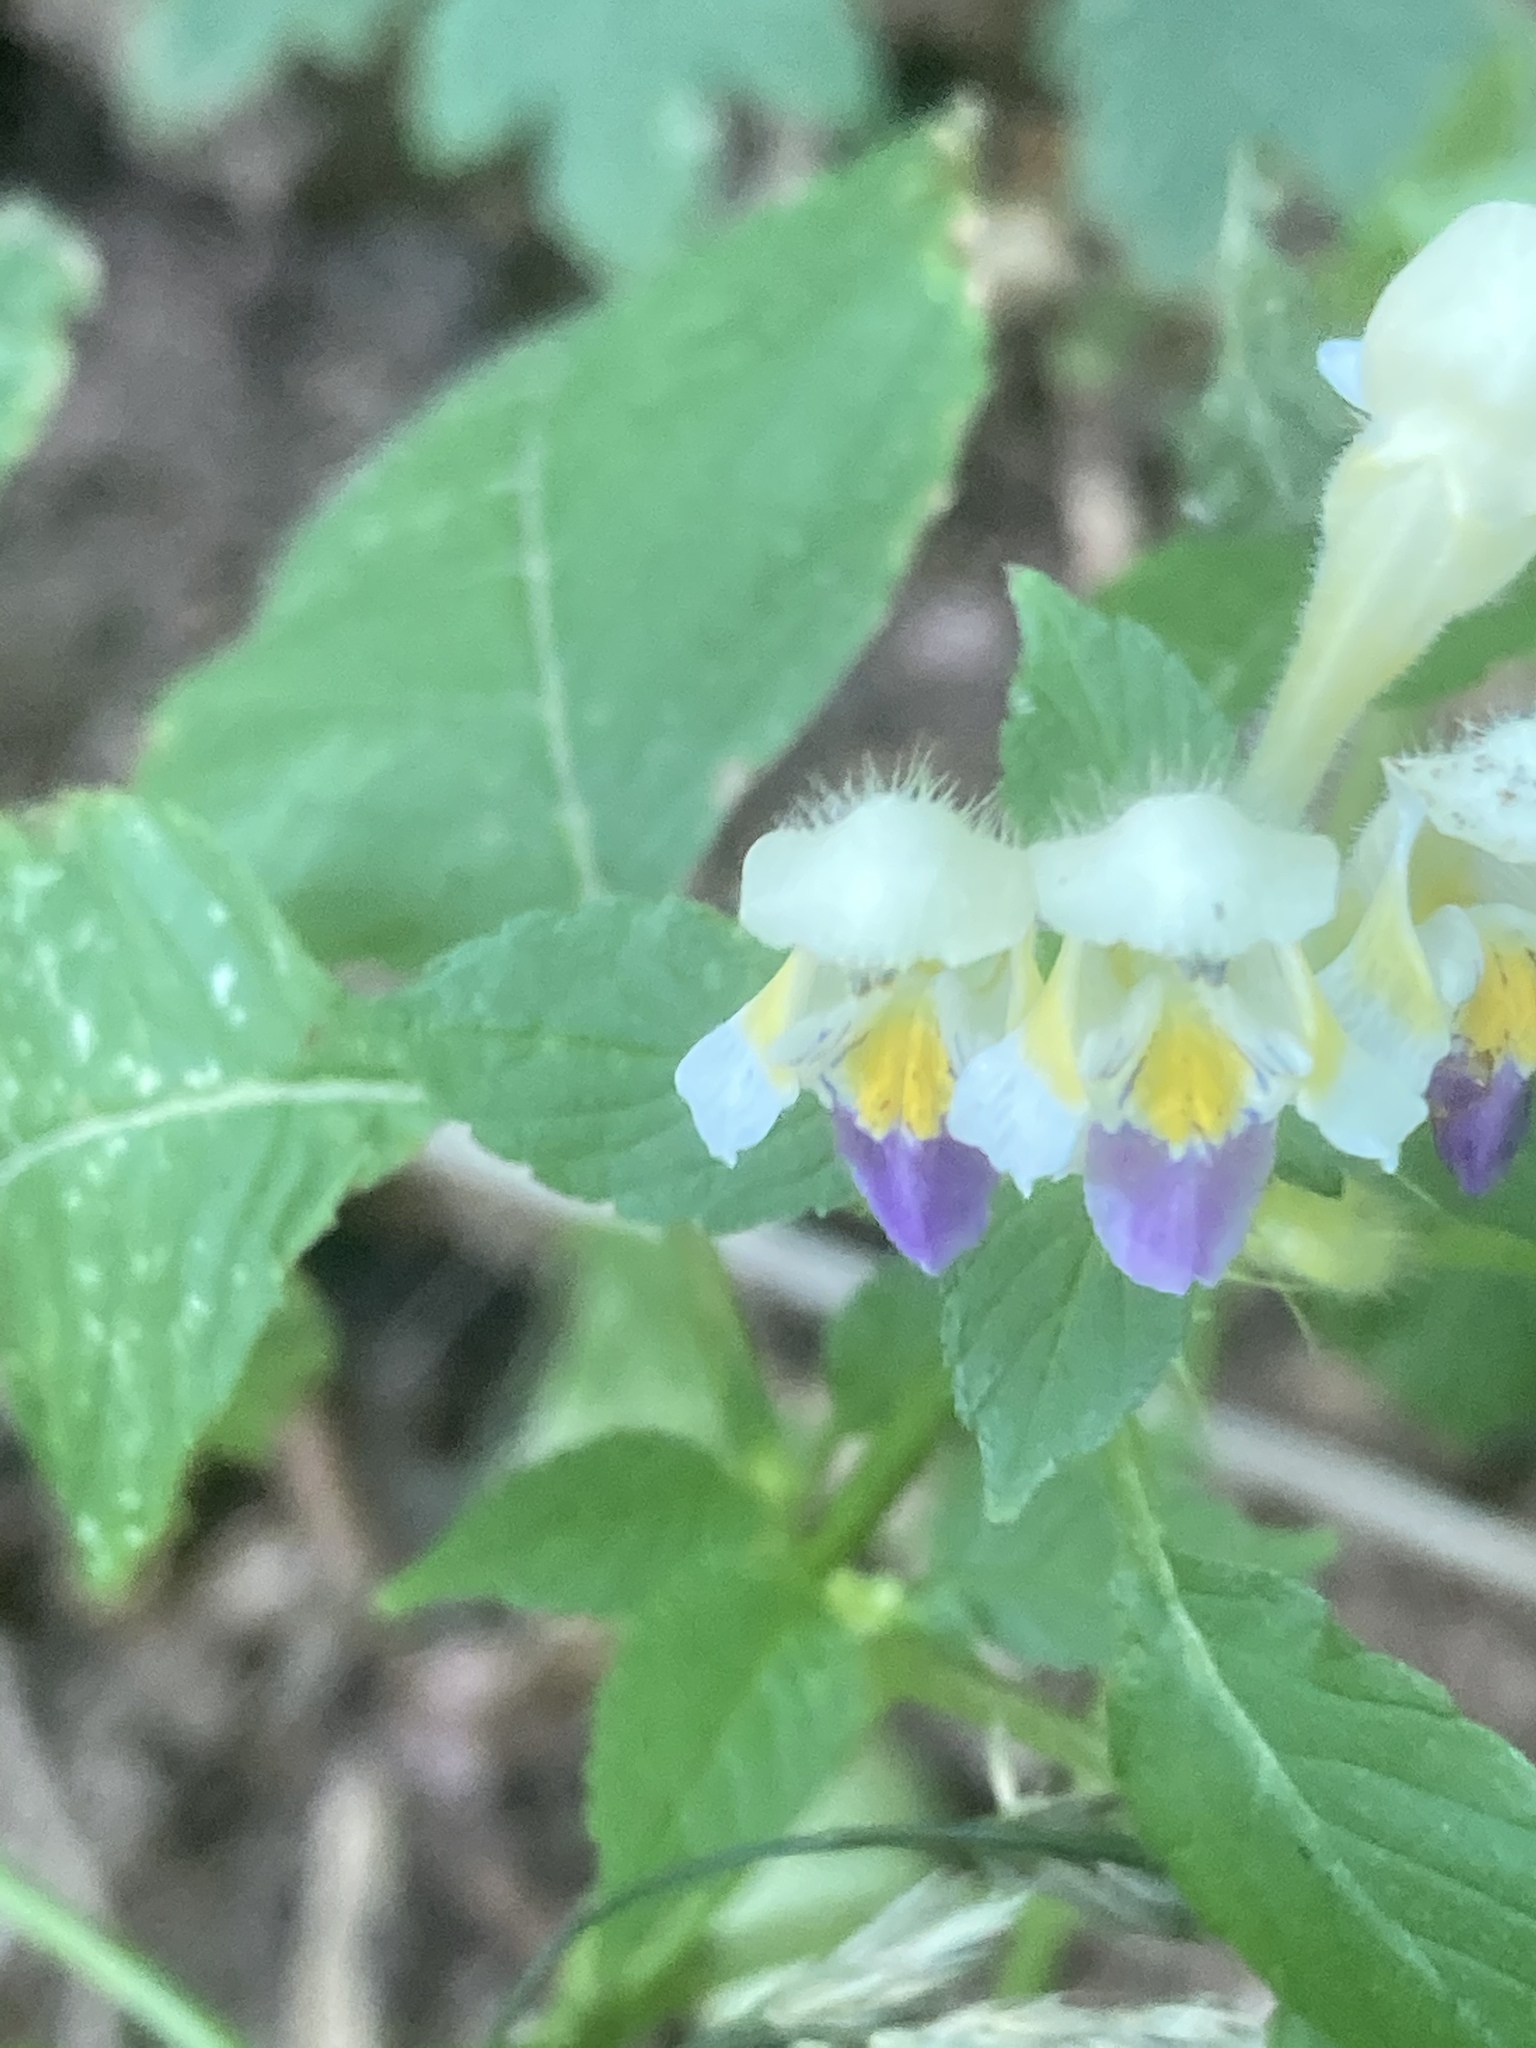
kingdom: Plantae
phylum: Tracheophyta
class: Magnoliopsida
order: Lamiales
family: Lamiaceae
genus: Galeopsis
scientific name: Galeopsis speciosa
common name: Large-flowered hemp-nettle
